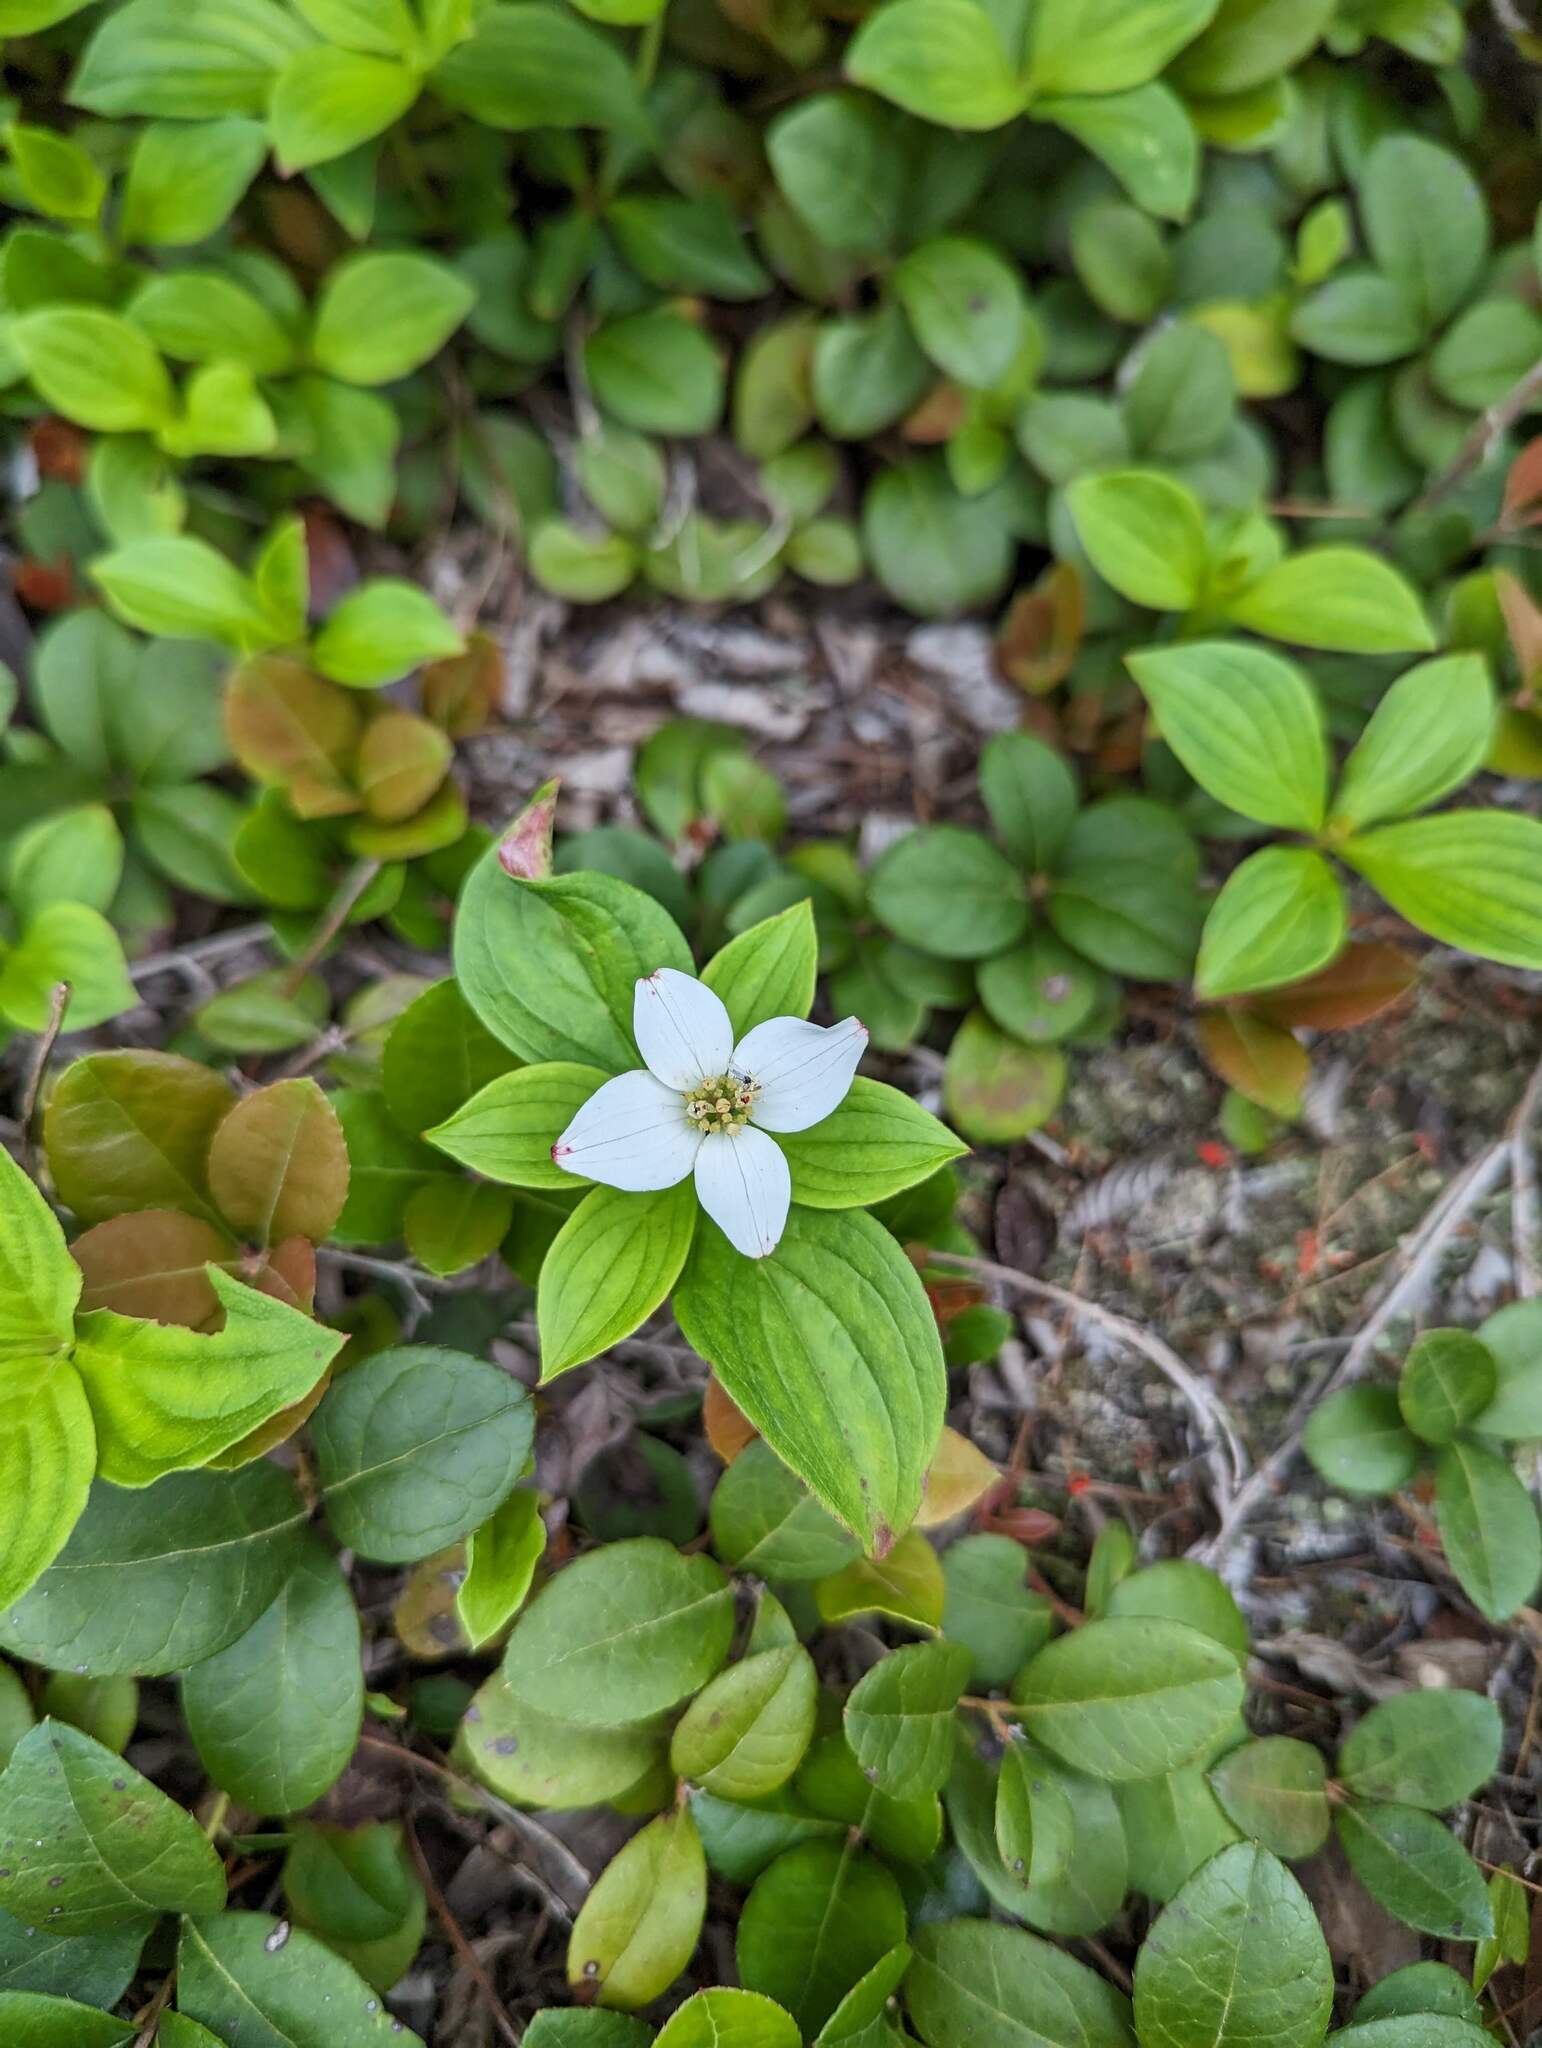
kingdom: Plantae
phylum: Tracheophyta
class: Magnoliopsida
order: Cornales
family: Cornaceae
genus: Cornus
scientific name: Cornus canadensis
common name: Creeping dogwood
